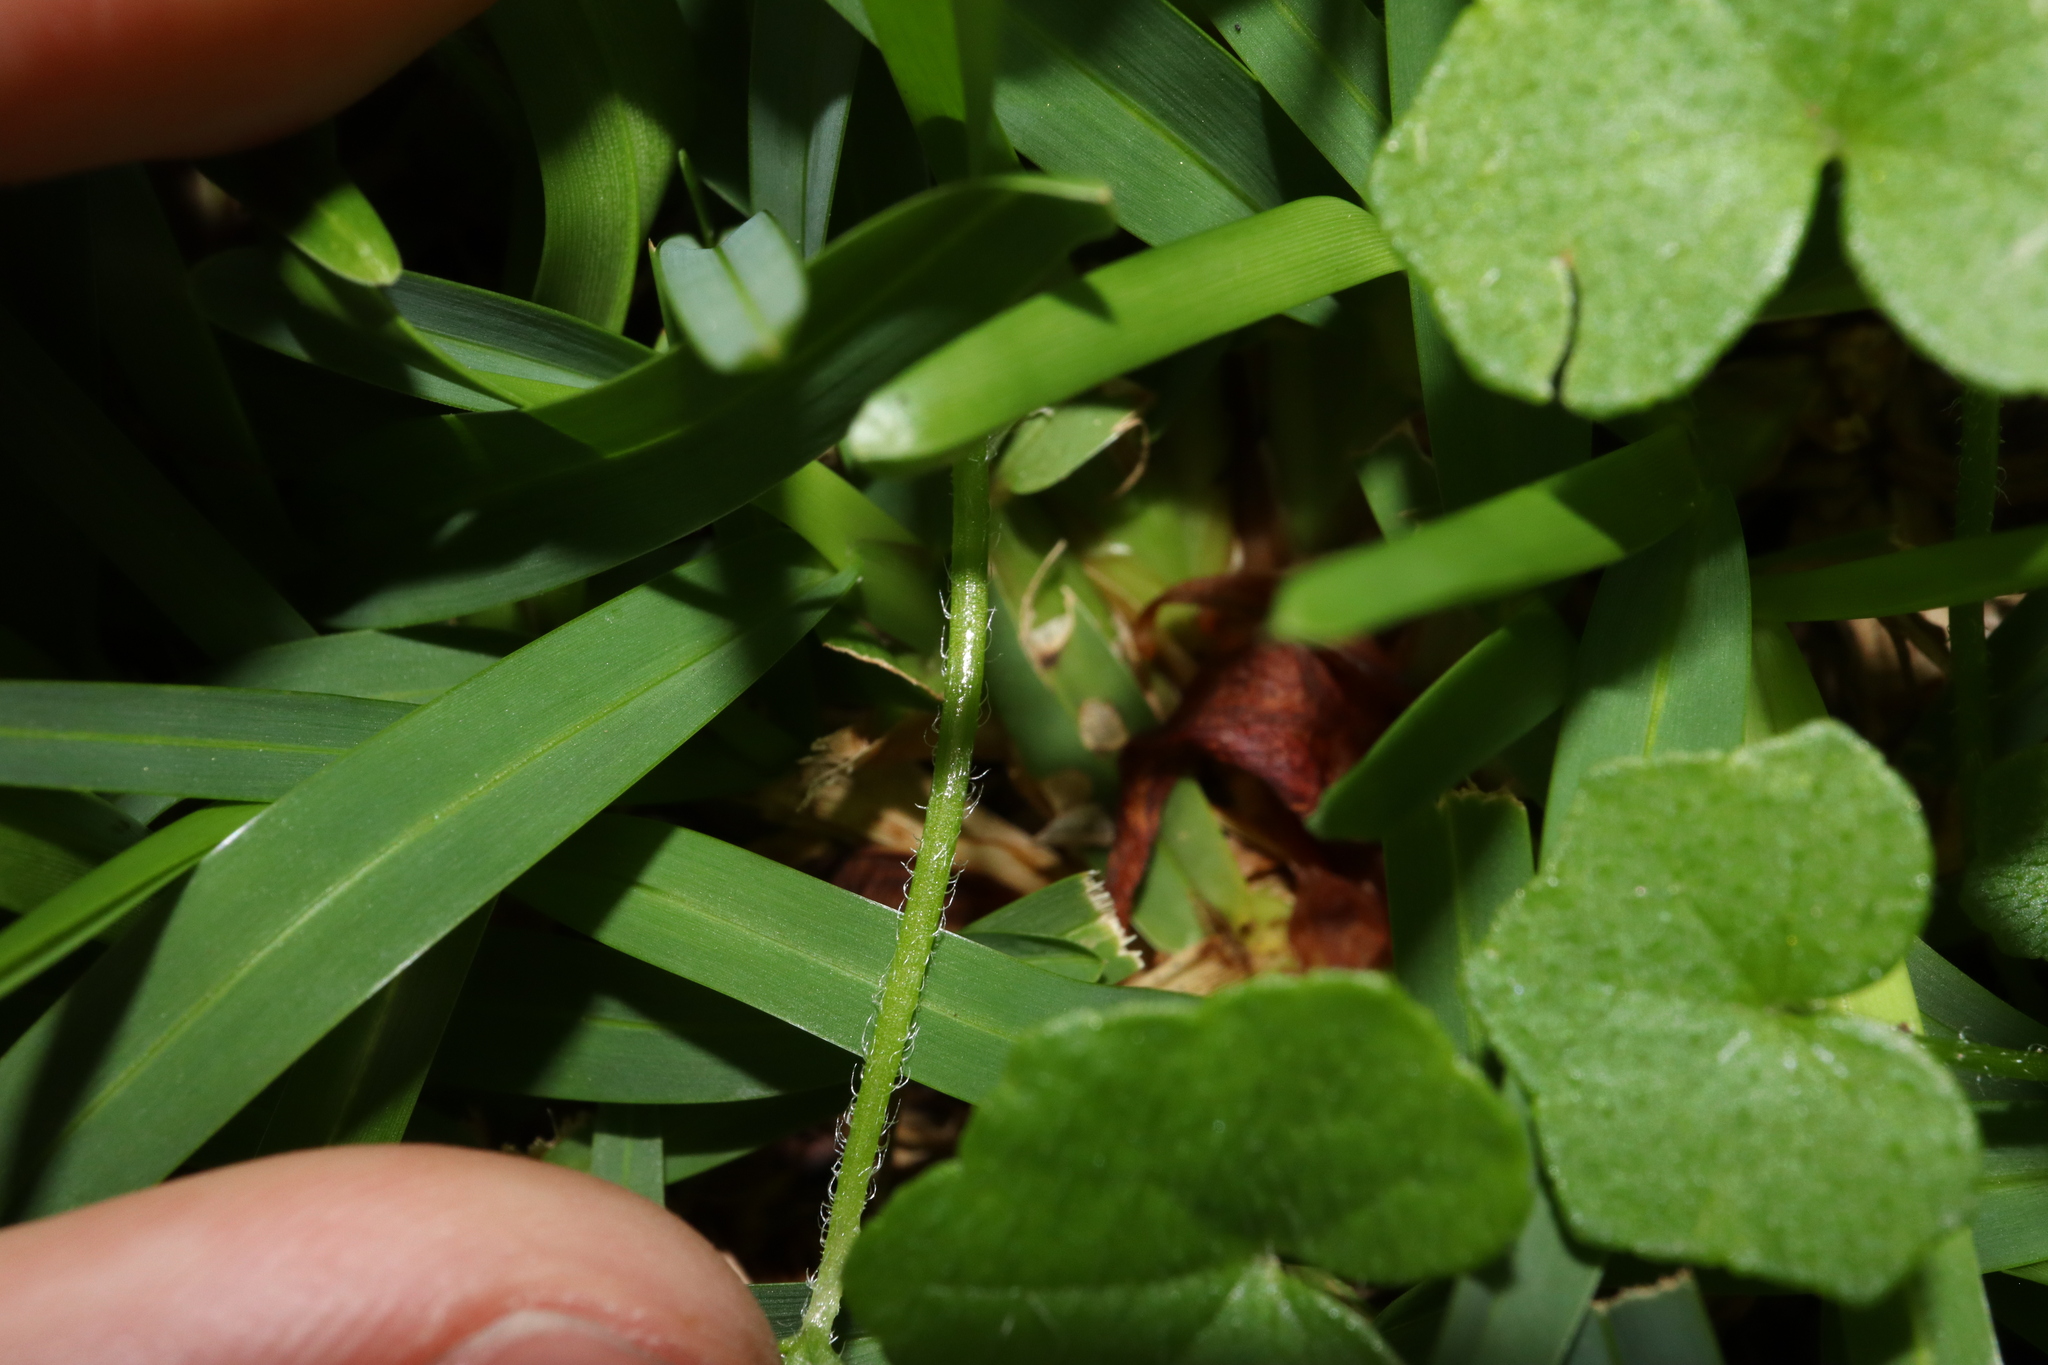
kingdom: Plantae
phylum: Tracheophyta
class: Magnoliopsida
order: Apiales
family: Araliaceae
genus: Hydrocotyle
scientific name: Hydrocotyle hirta
